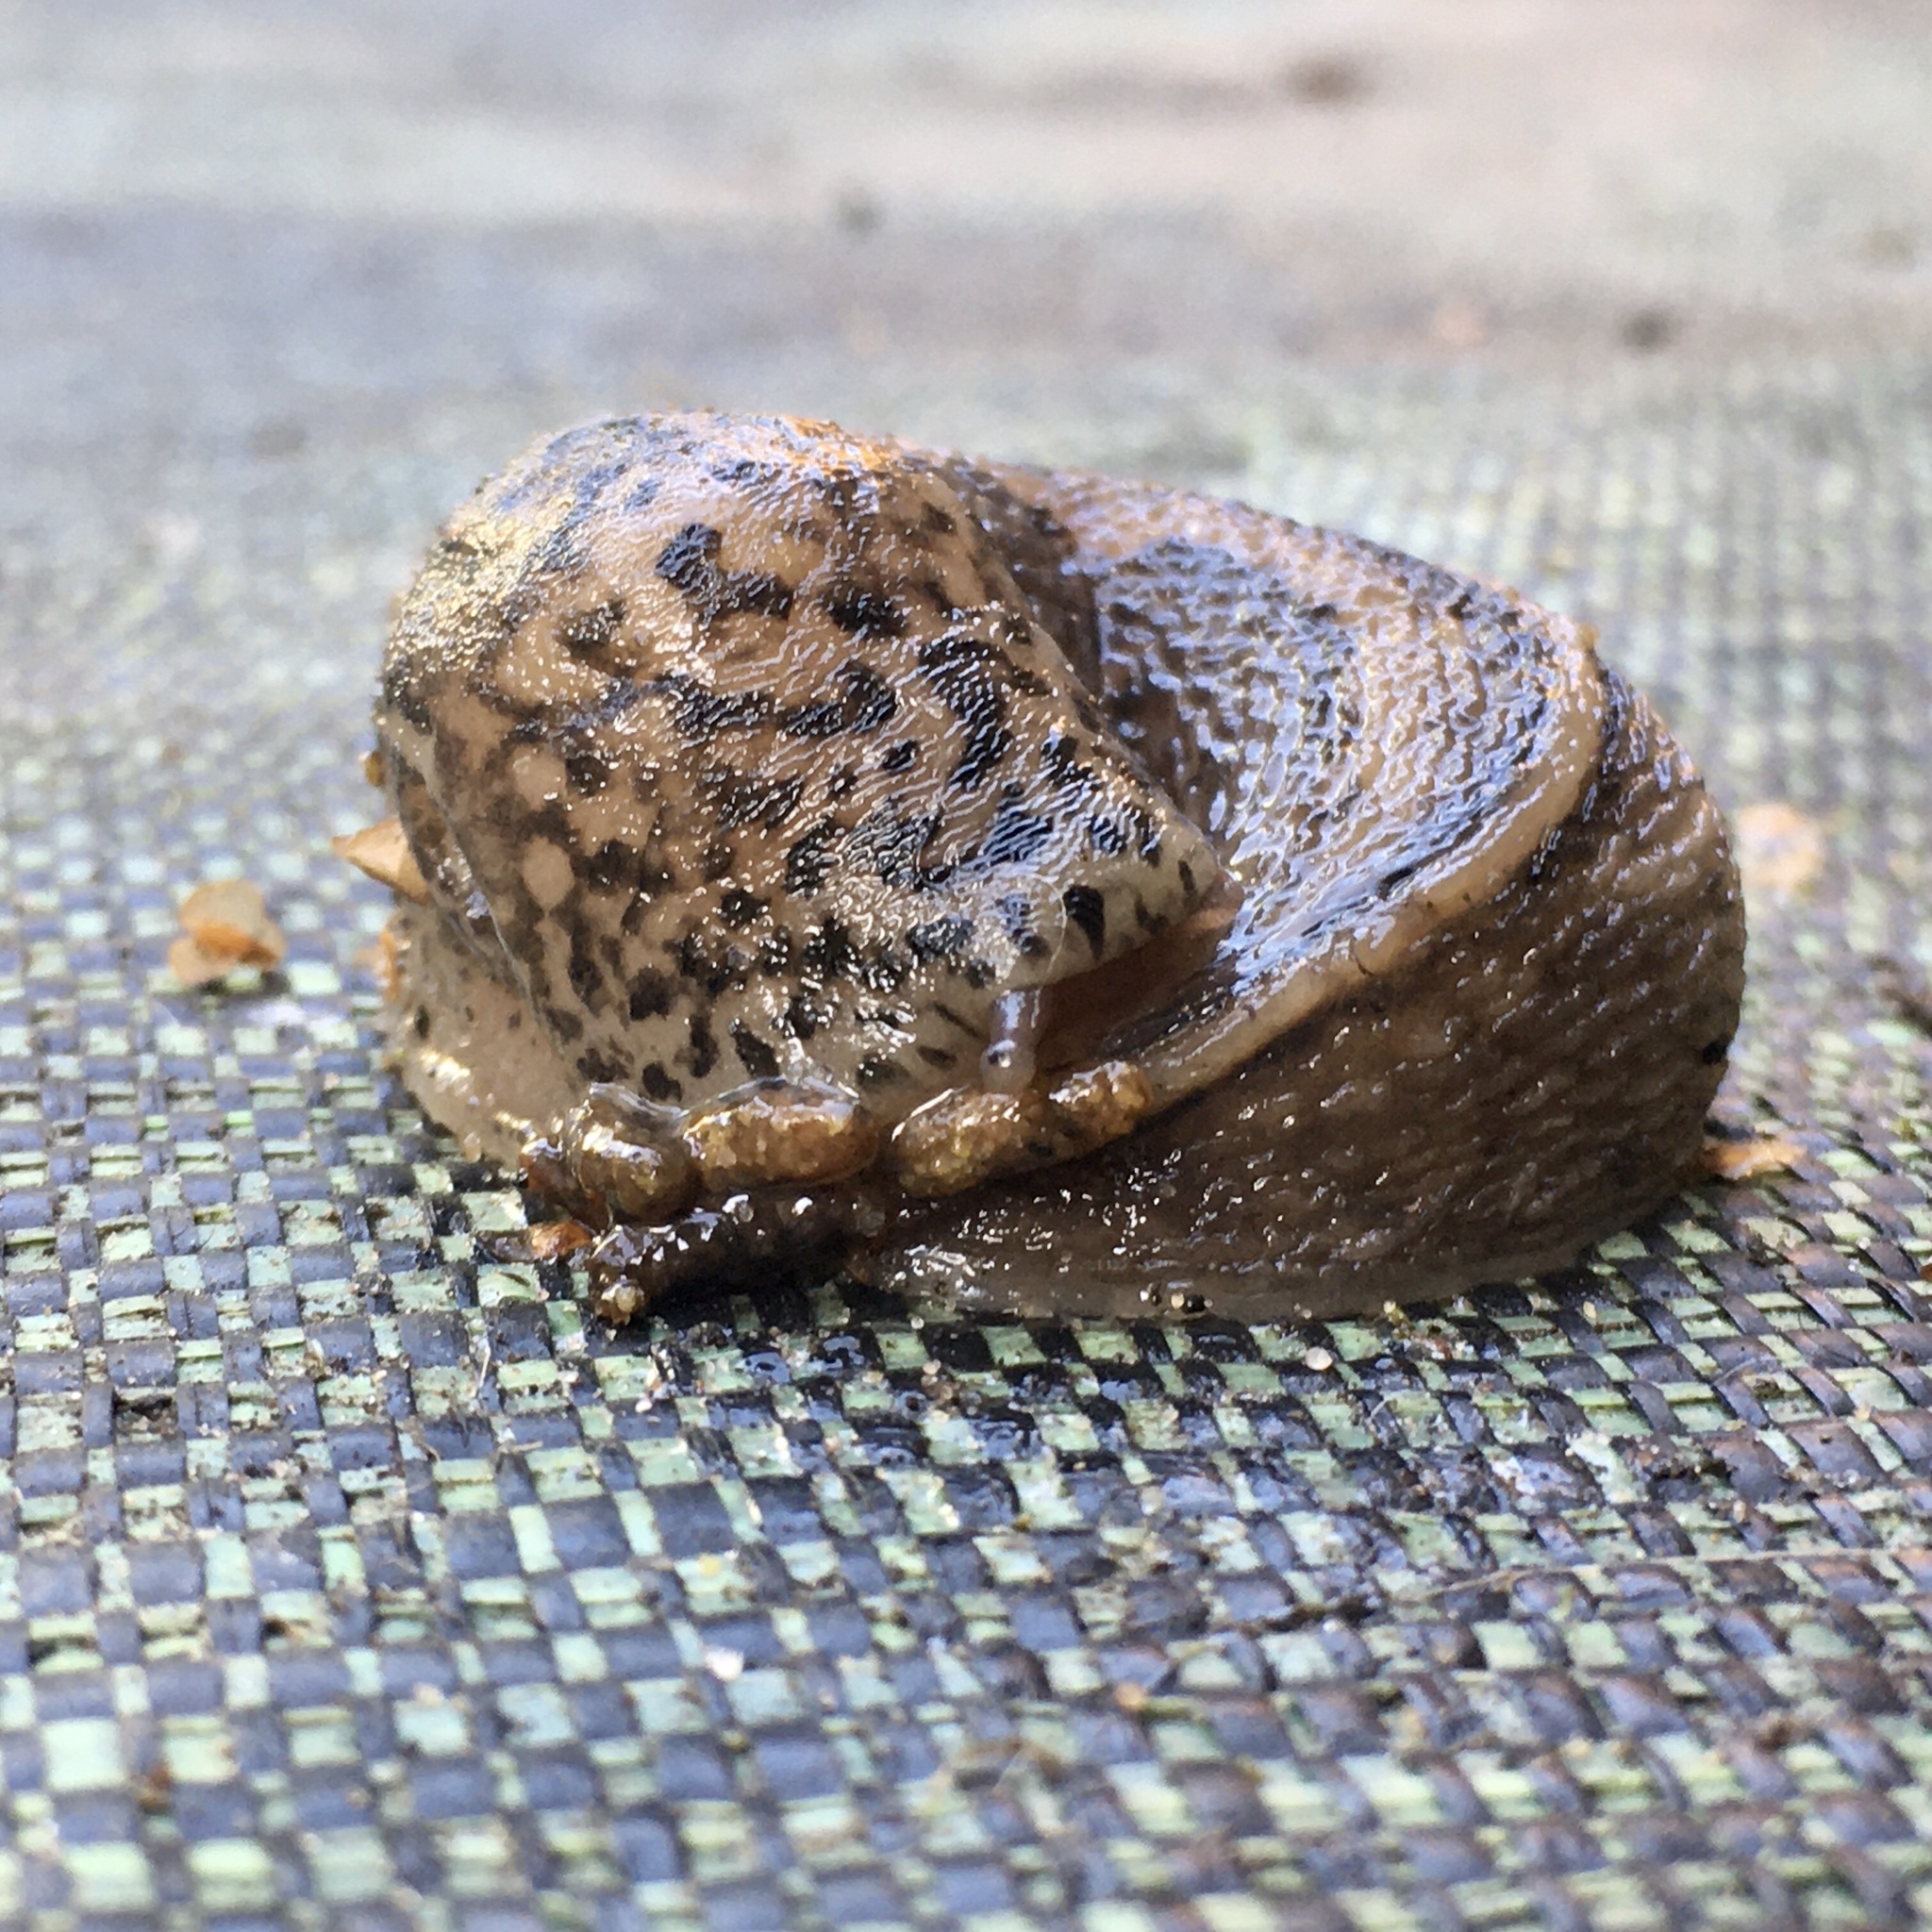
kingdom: Animalia
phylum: Mollusca
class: Gastropoda
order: Stylommatophora
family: Limacidae
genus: Limax
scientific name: Limax maximus
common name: Great grey slug
